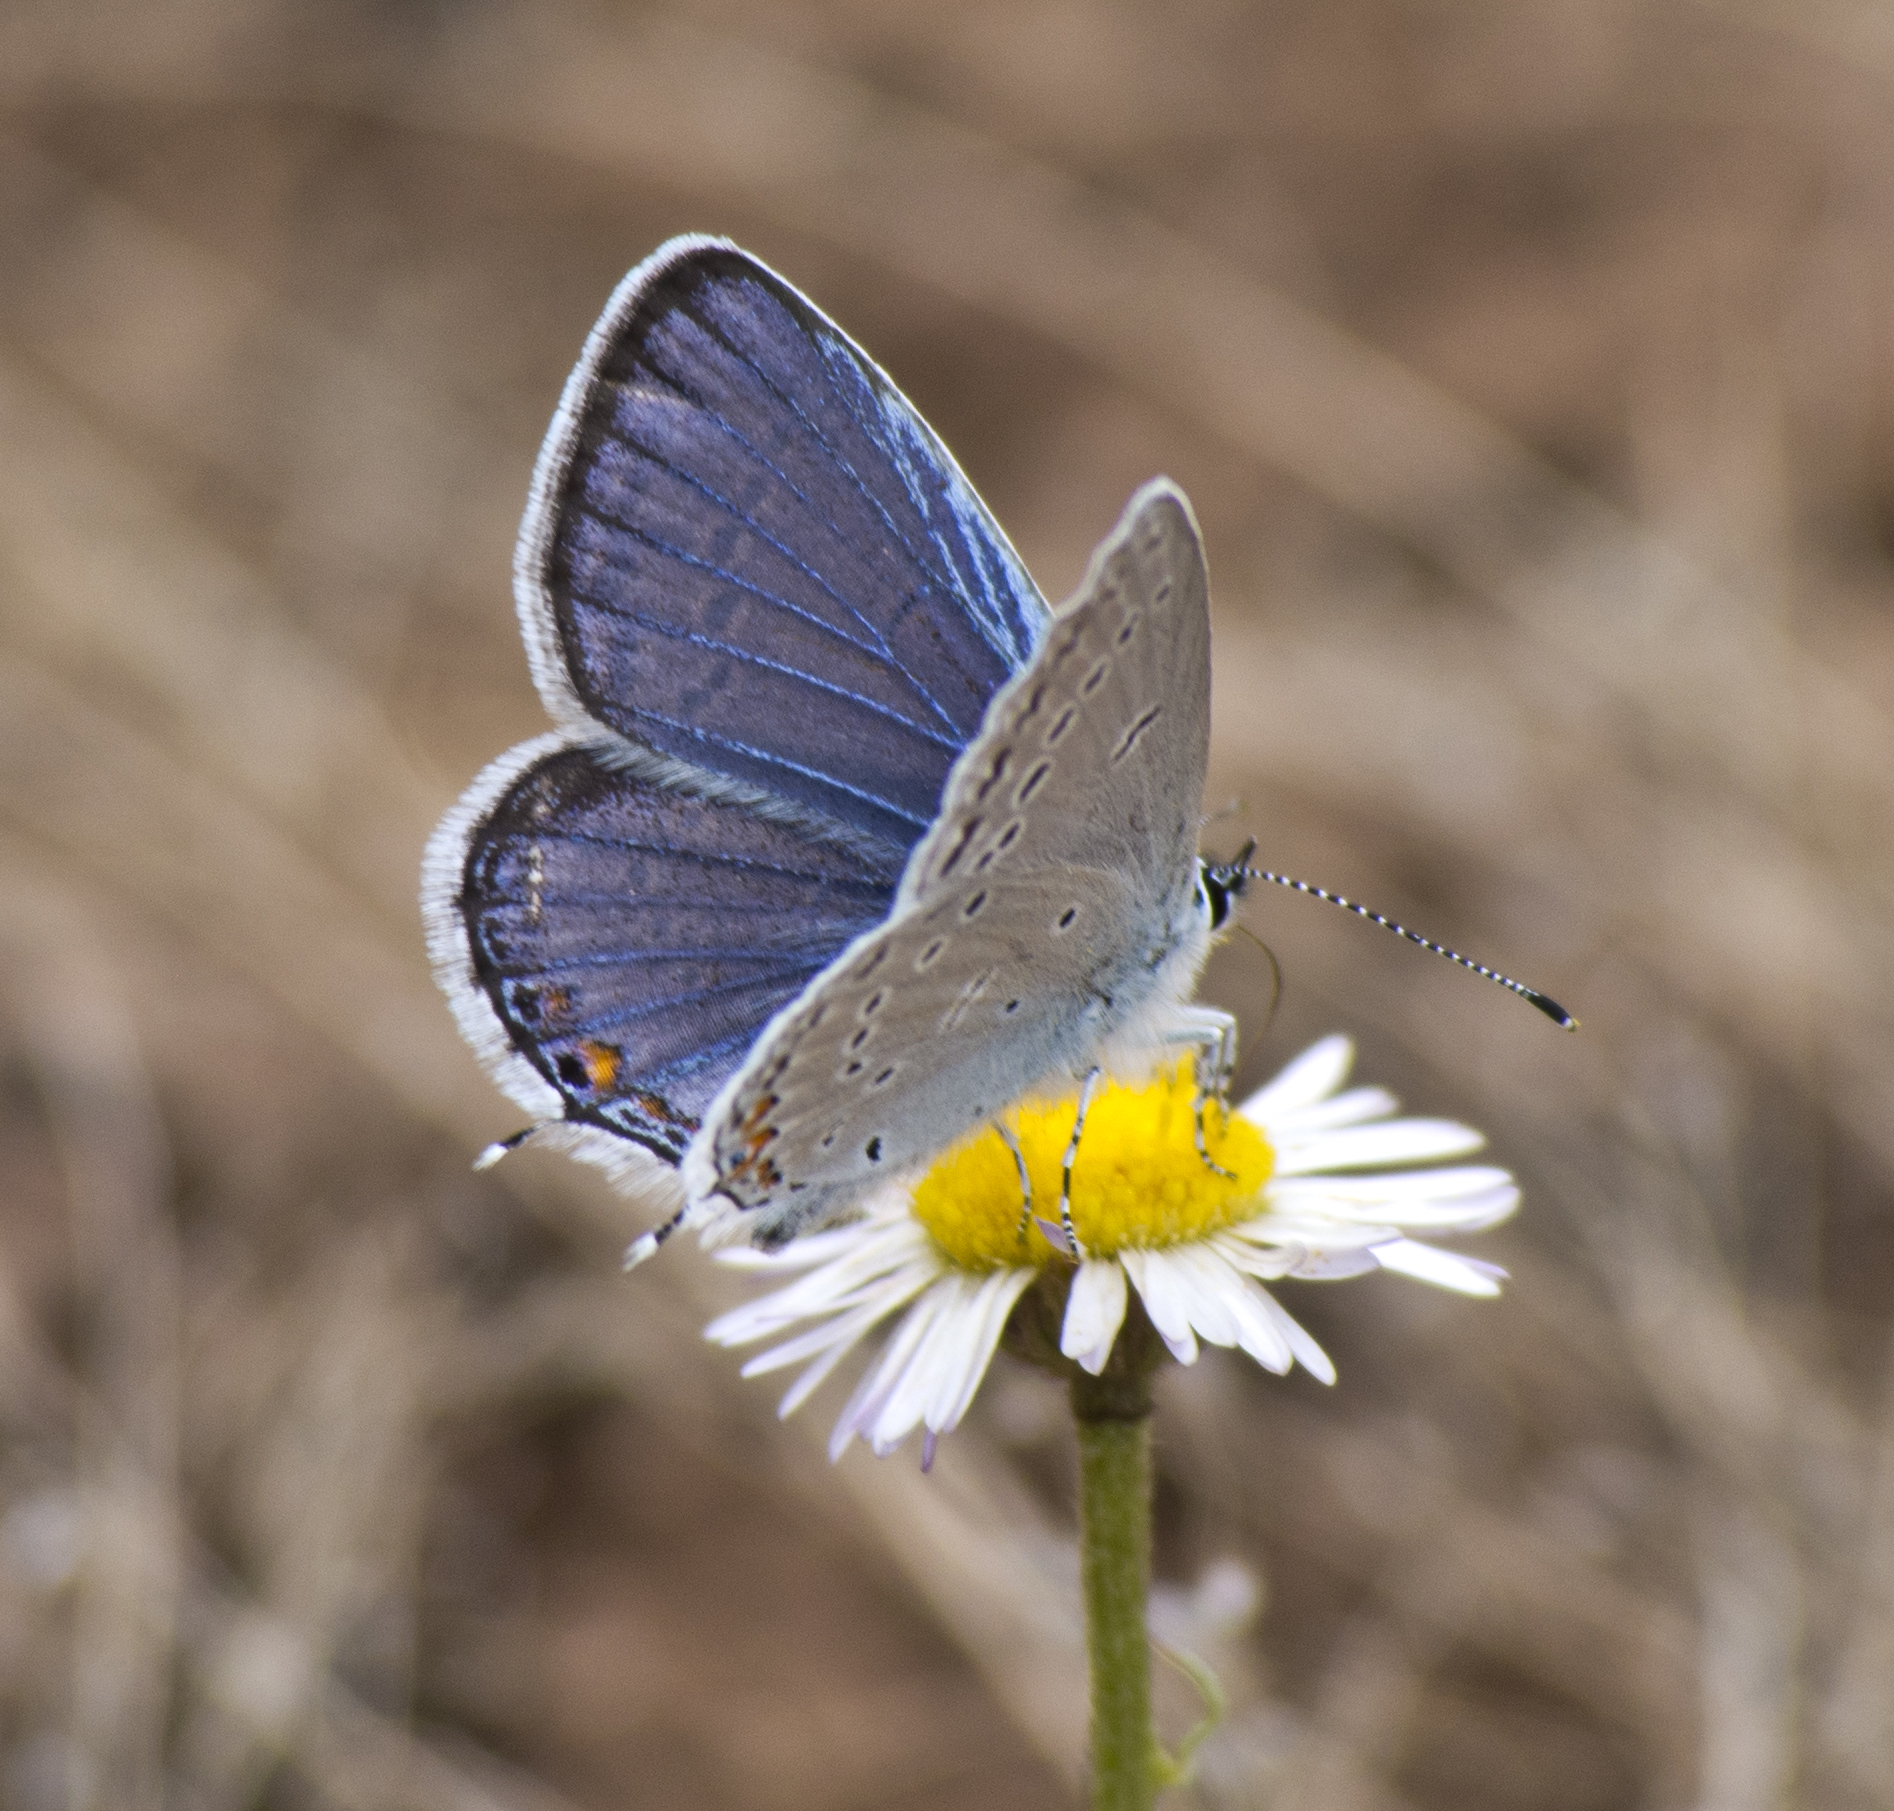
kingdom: Animalia
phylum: Arthropoda
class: Insecta
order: Lepidoptera
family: Lycaenidae
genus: Elkalyce
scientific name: Elkalyce amyntula
